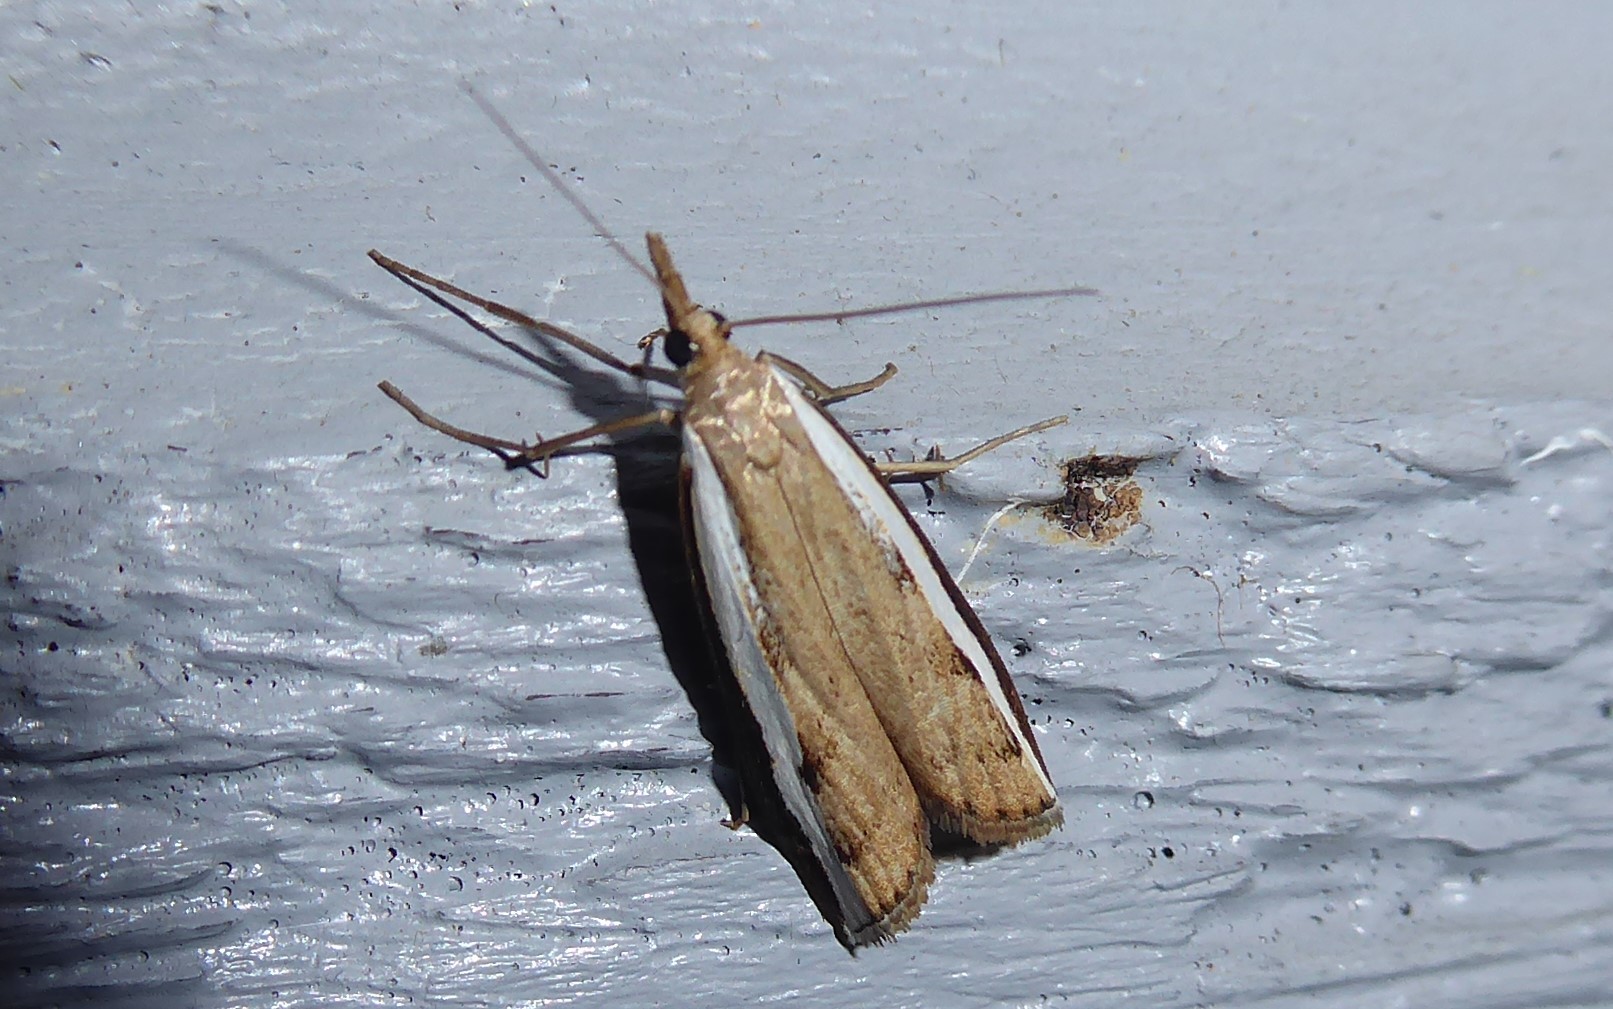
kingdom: Animalia
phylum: Arthropoda
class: Insecta
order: Lepidoptera
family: Crambidae
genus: Orocrambus
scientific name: Orocrambus flexuosellus
